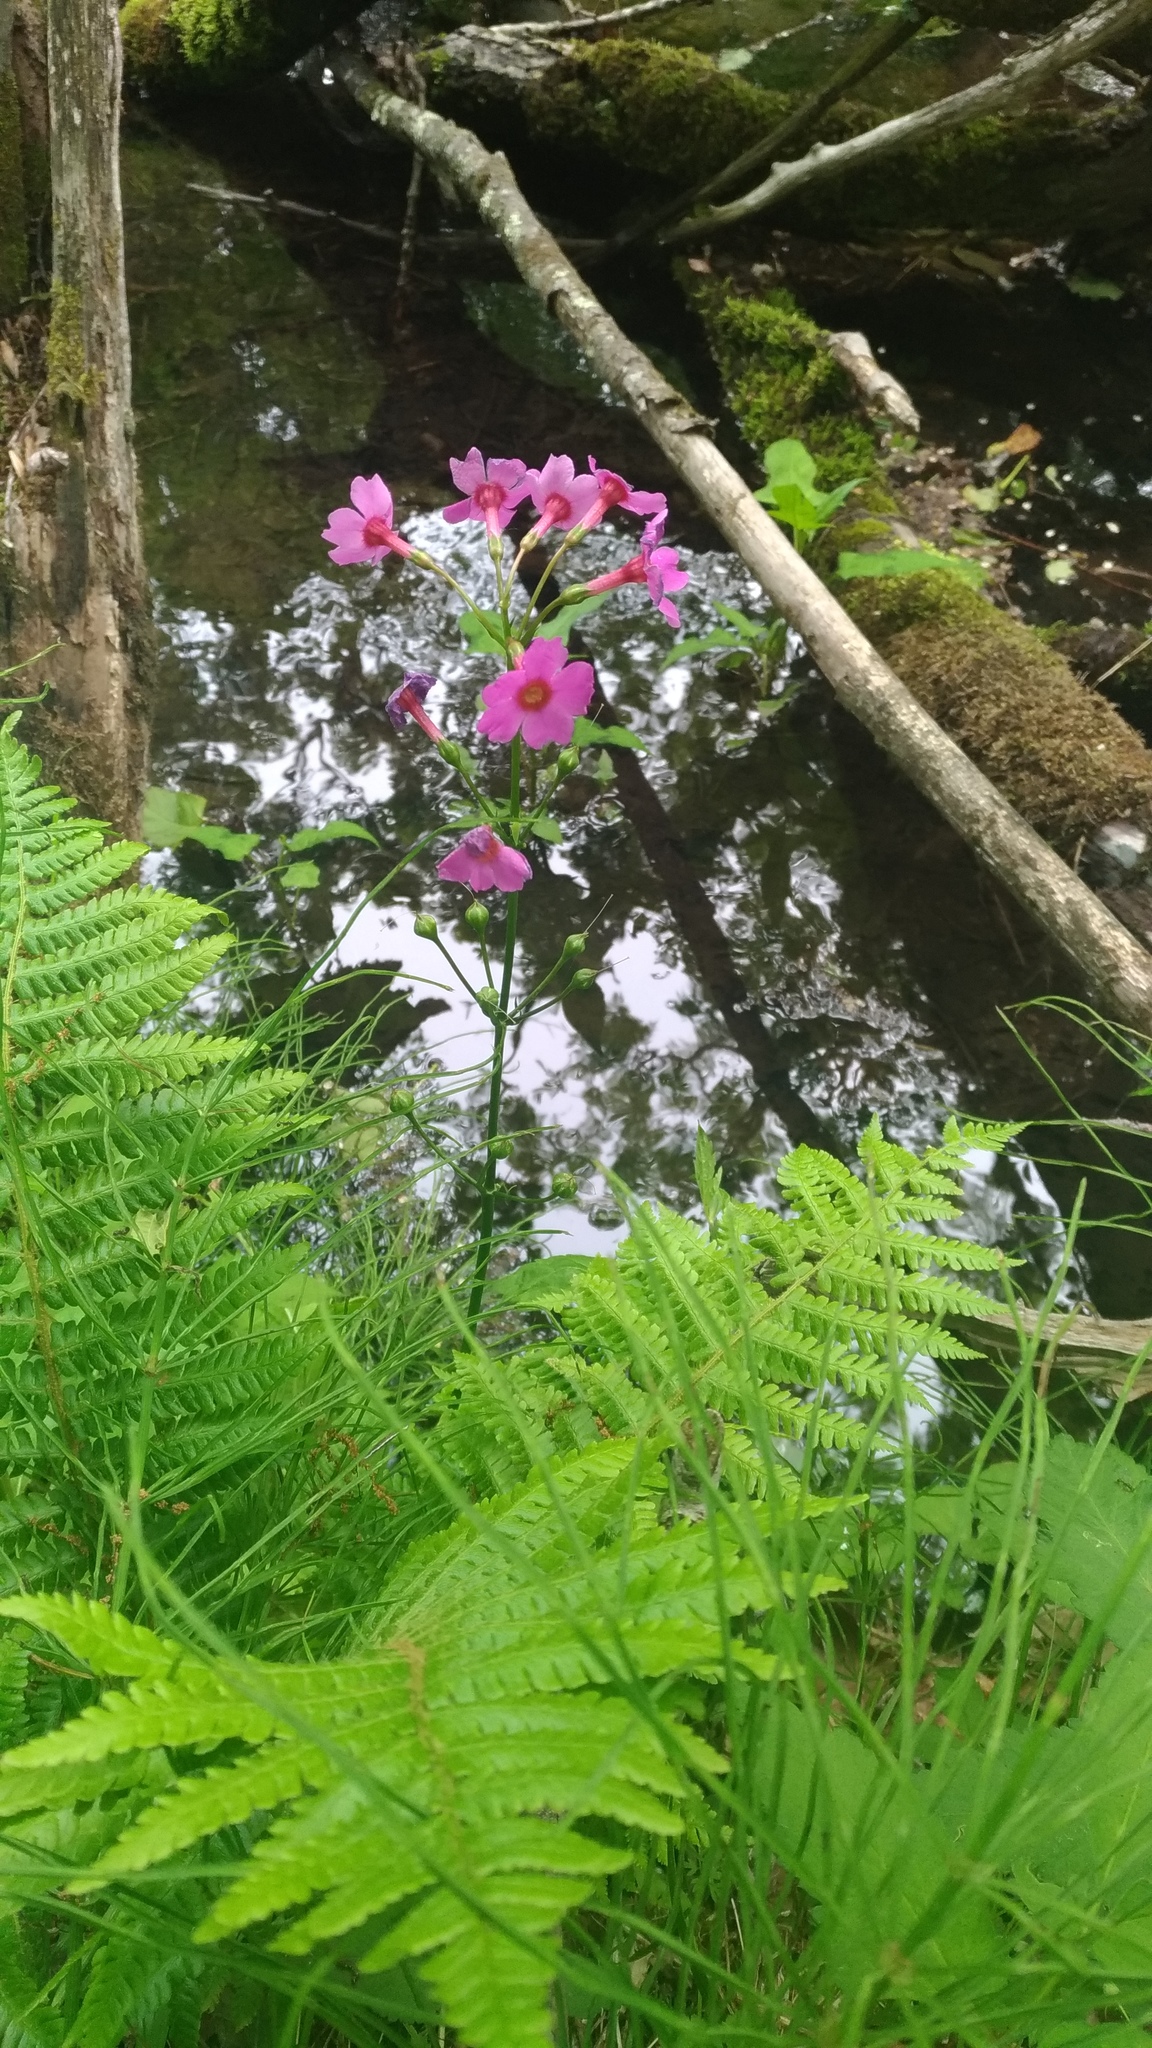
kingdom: Plantae
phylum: Tracheophyta
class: Magnoliopsida
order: Ericales
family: Primulaceae
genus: Primula
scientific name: Primula japonica
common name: Japanese cowslip
